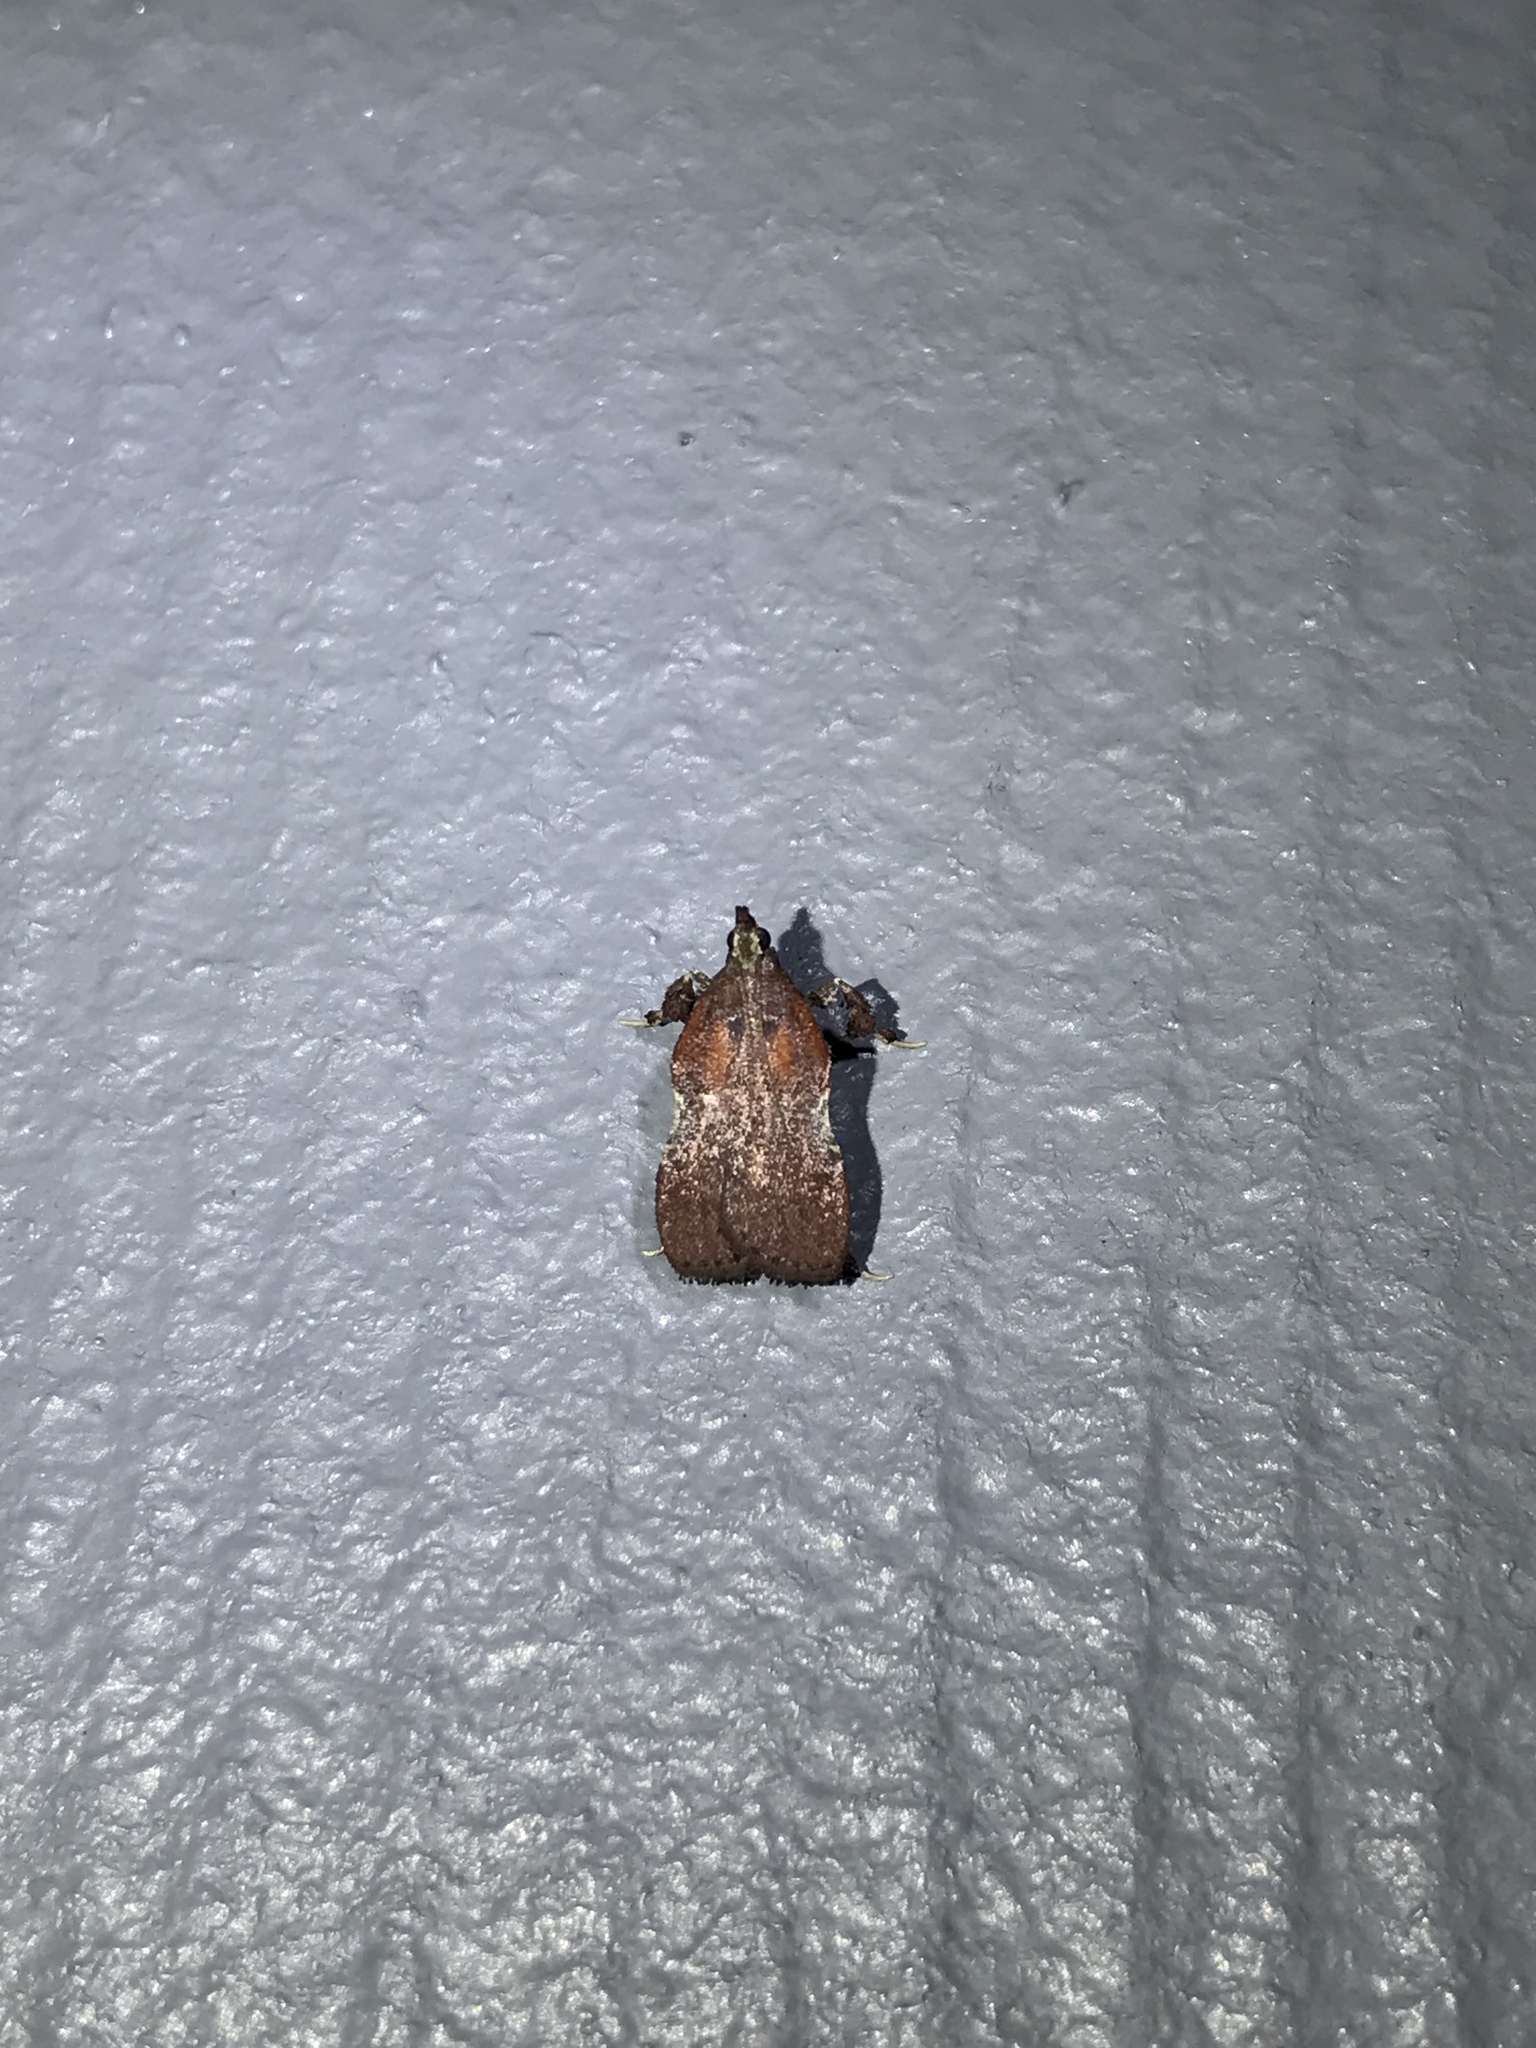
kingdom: Animalia
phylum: Arthropoda
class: Insecta
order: Lepidoptera
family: Pyralidae
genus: Galasa
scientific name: Galasa nigrinodis
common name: Boxwood leaftier moth
